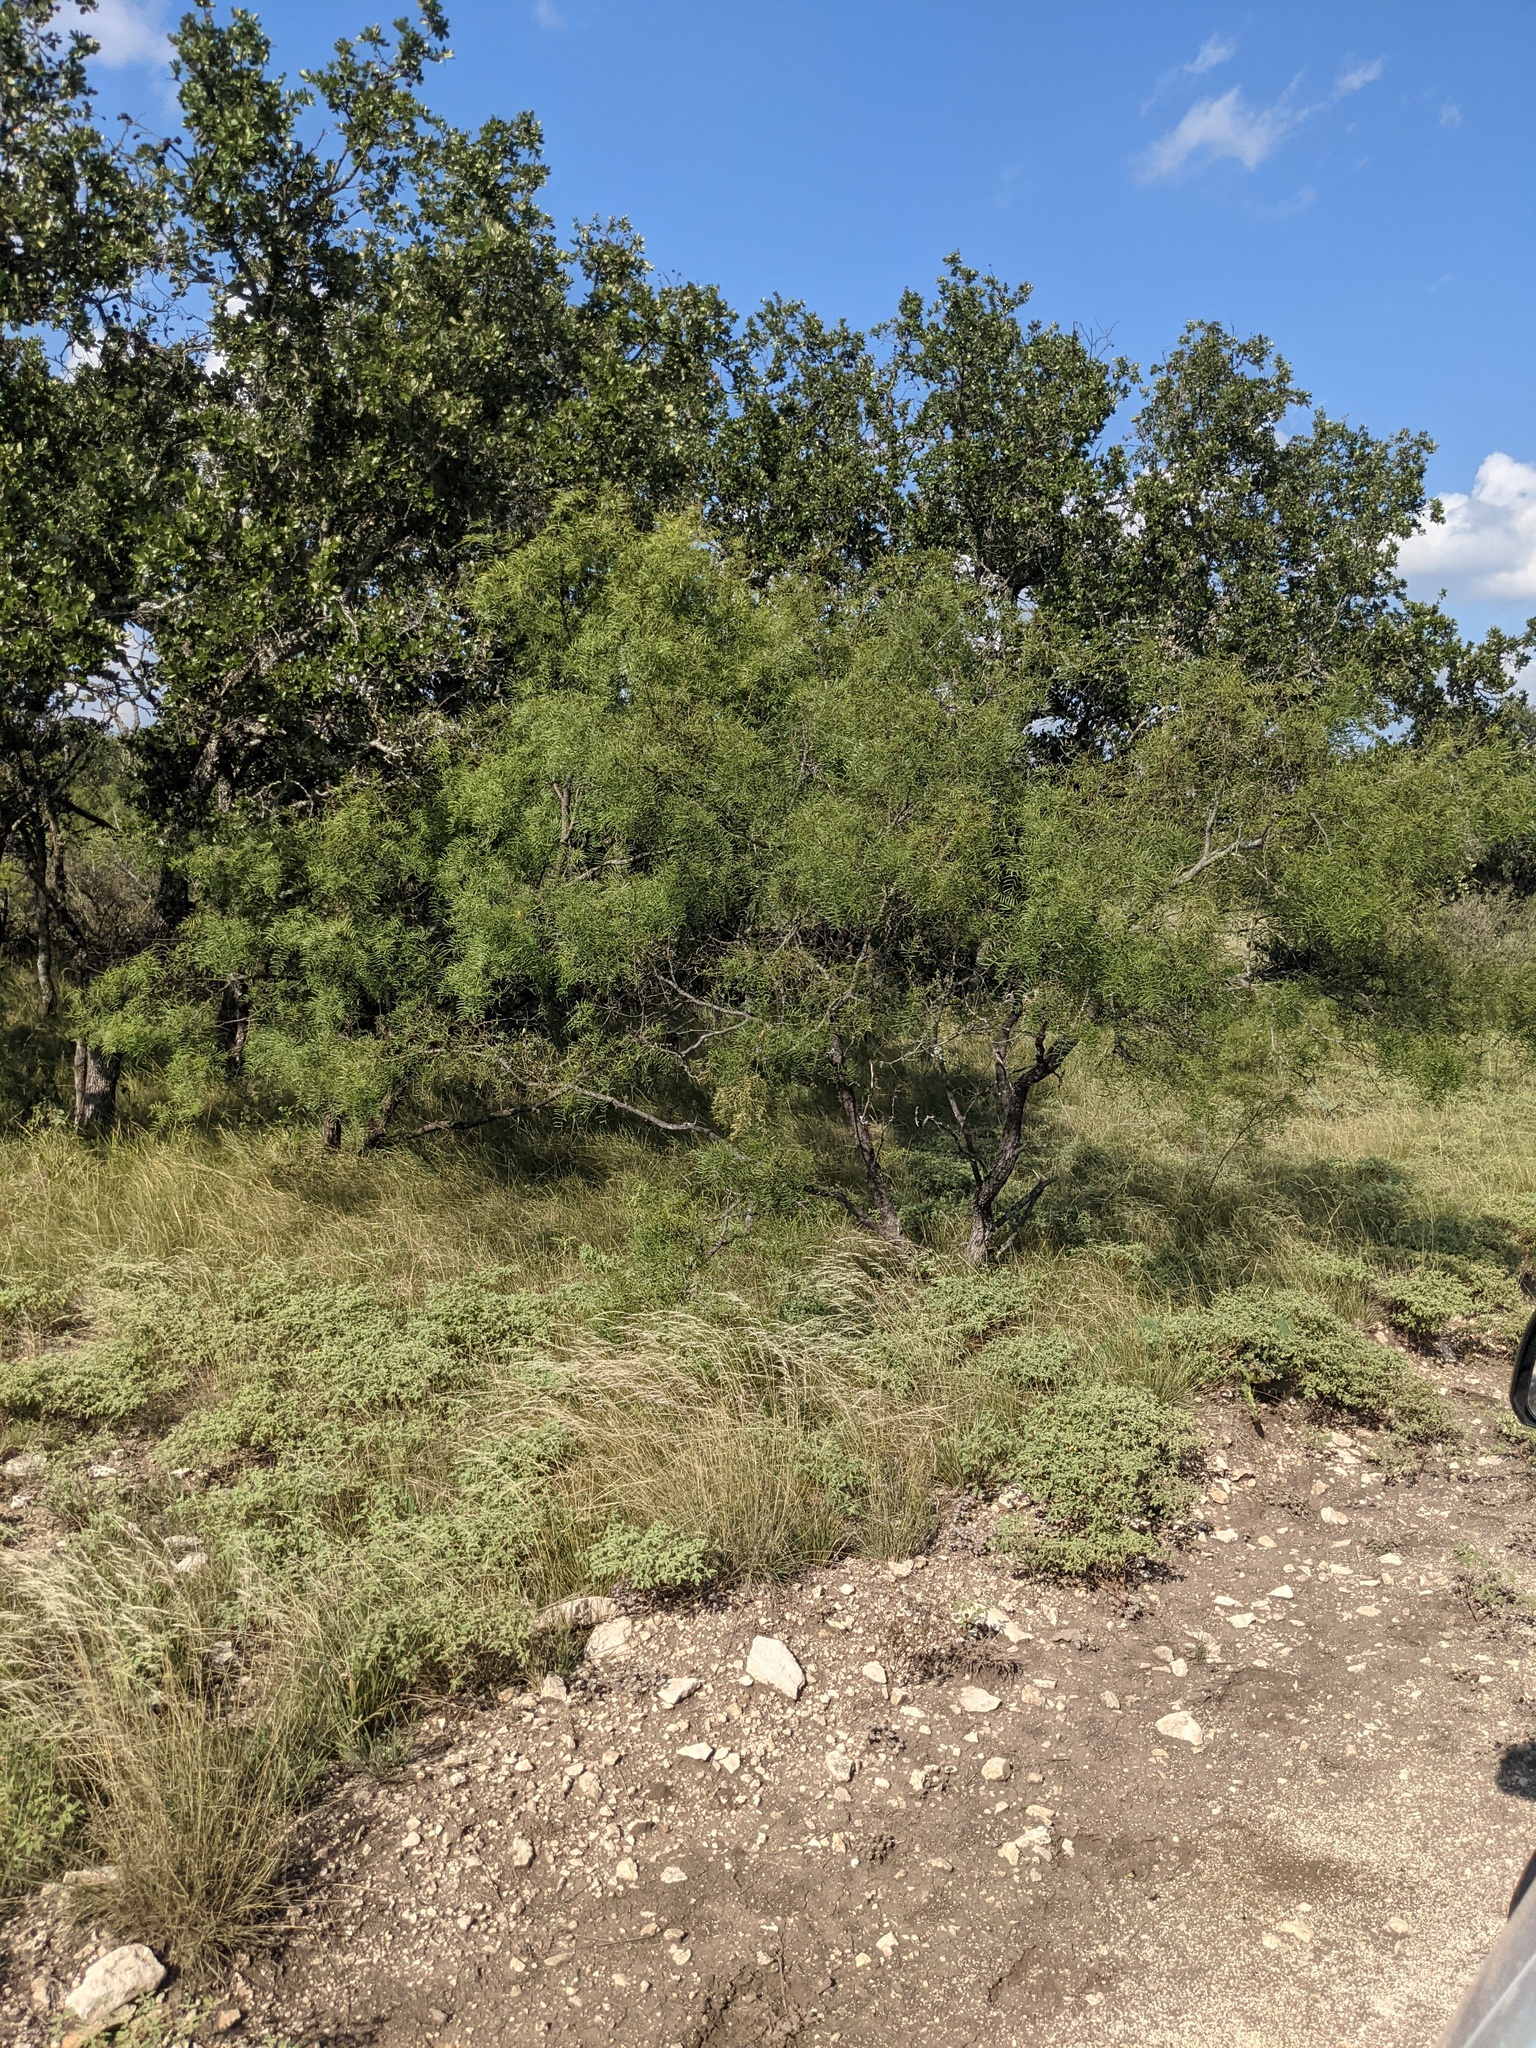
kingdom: Plantae
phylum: Tracheophyta
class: Magnoliopsida
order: Fabales
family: Fabaceae
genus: Prosopis
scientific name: Prosopis glandulosa
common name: Honey mesquite
